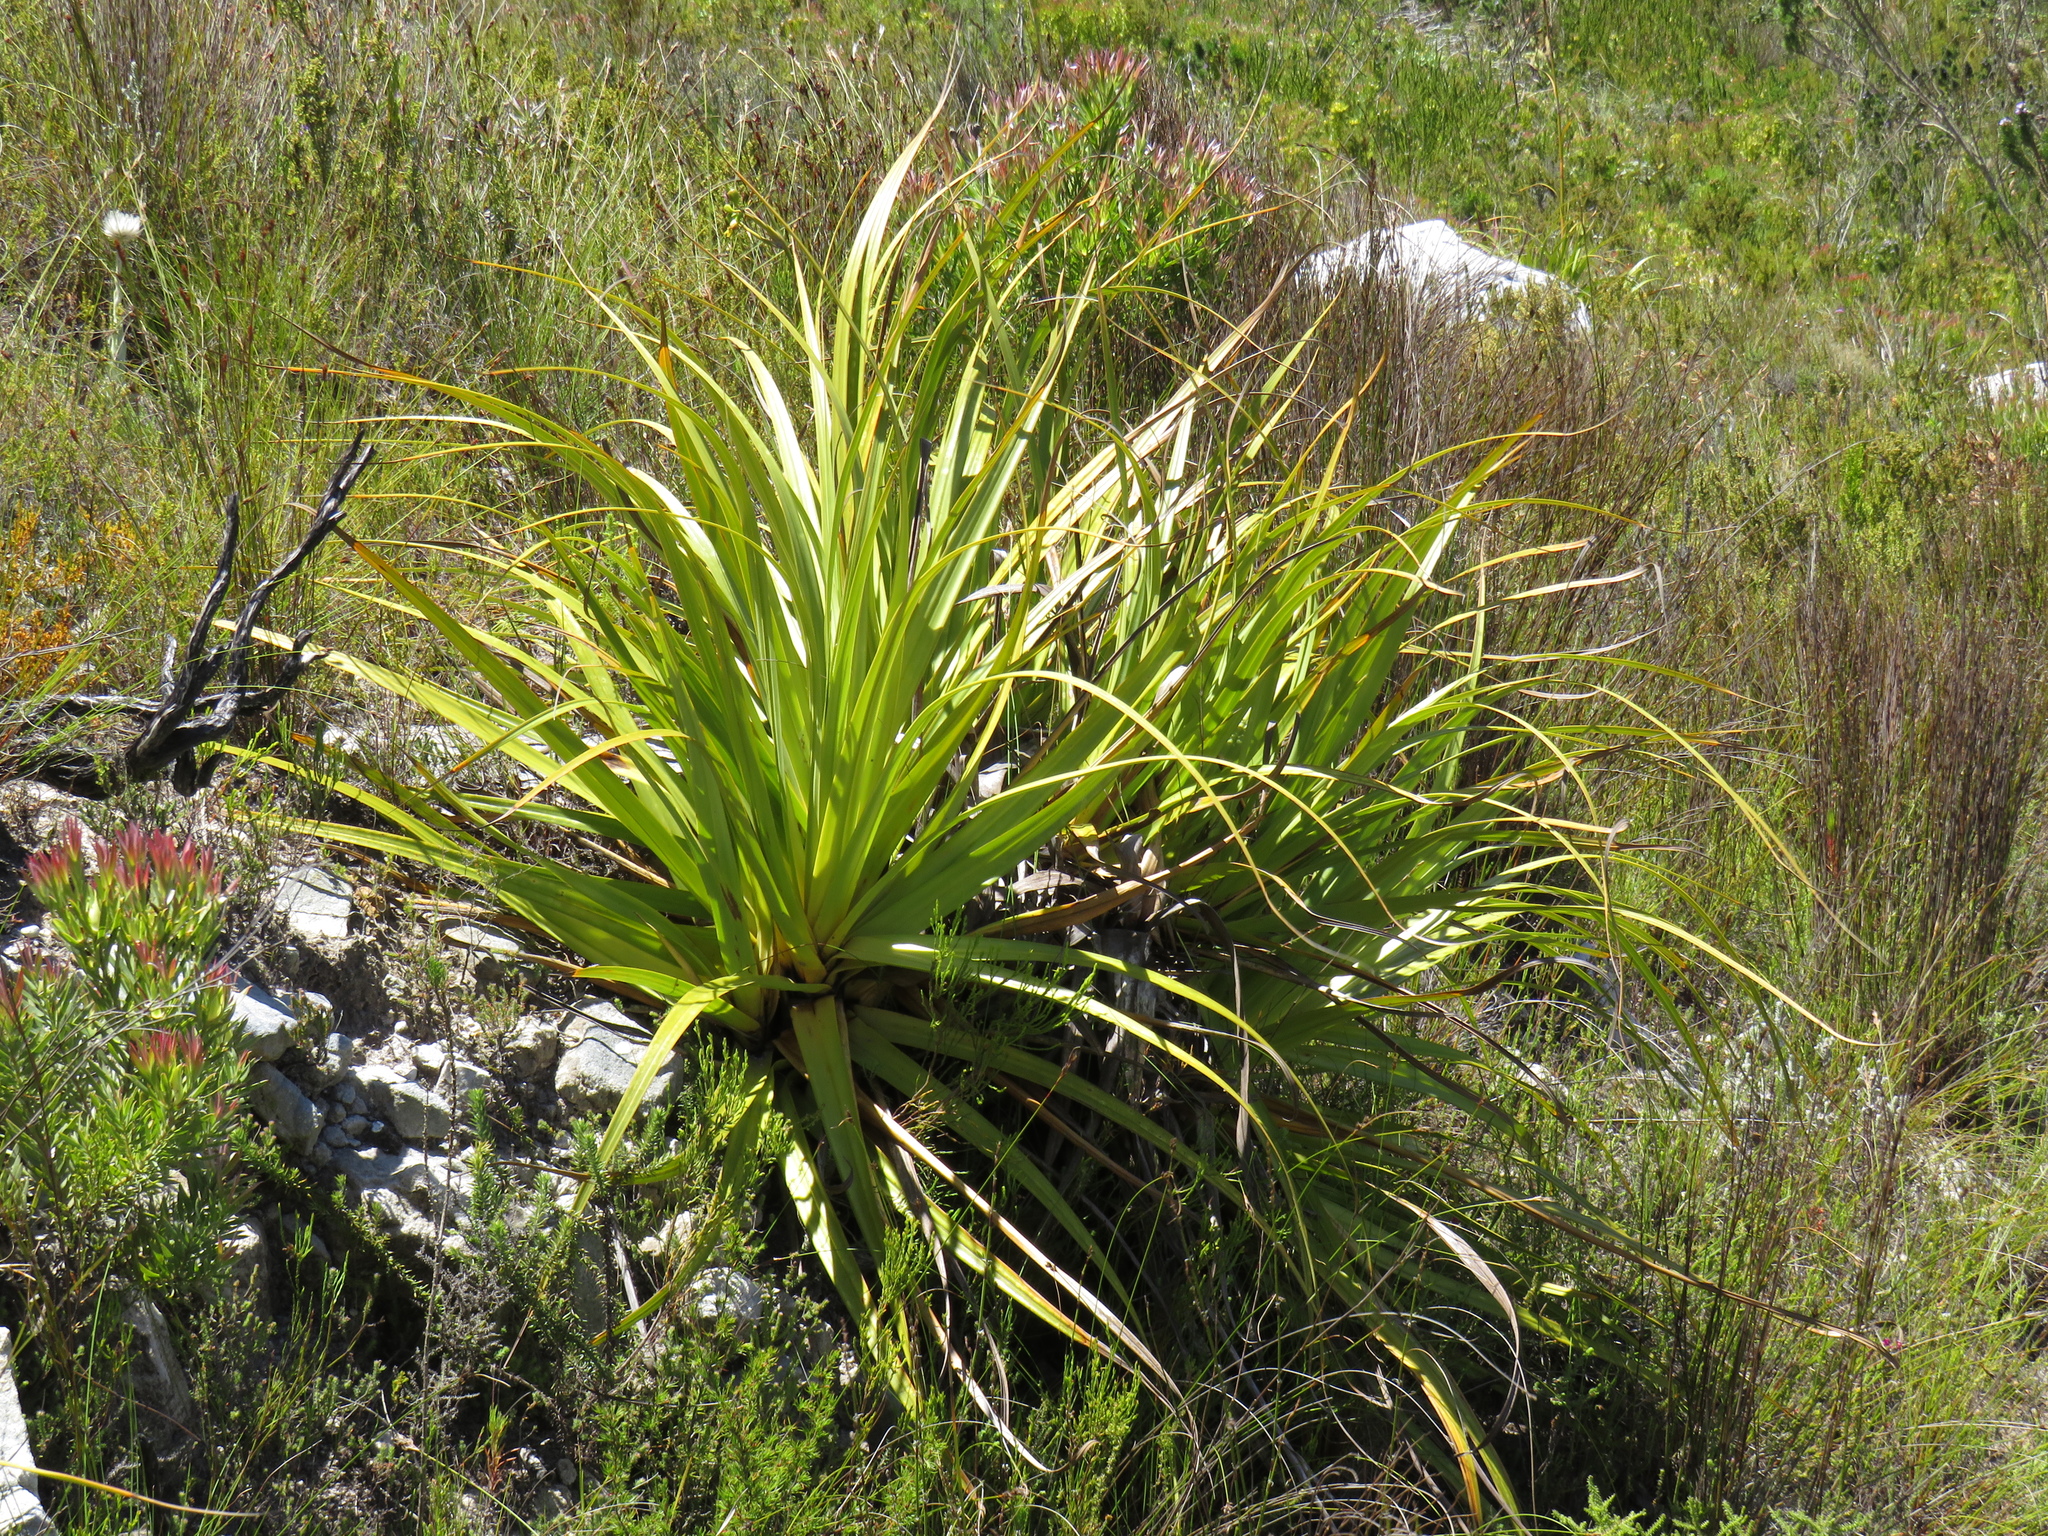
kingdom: Plantae
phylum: Tracheophyta
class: Liliopsida
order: Poales
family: Cyperaceae
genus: Tetraria
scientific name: Tetraria thermalis
